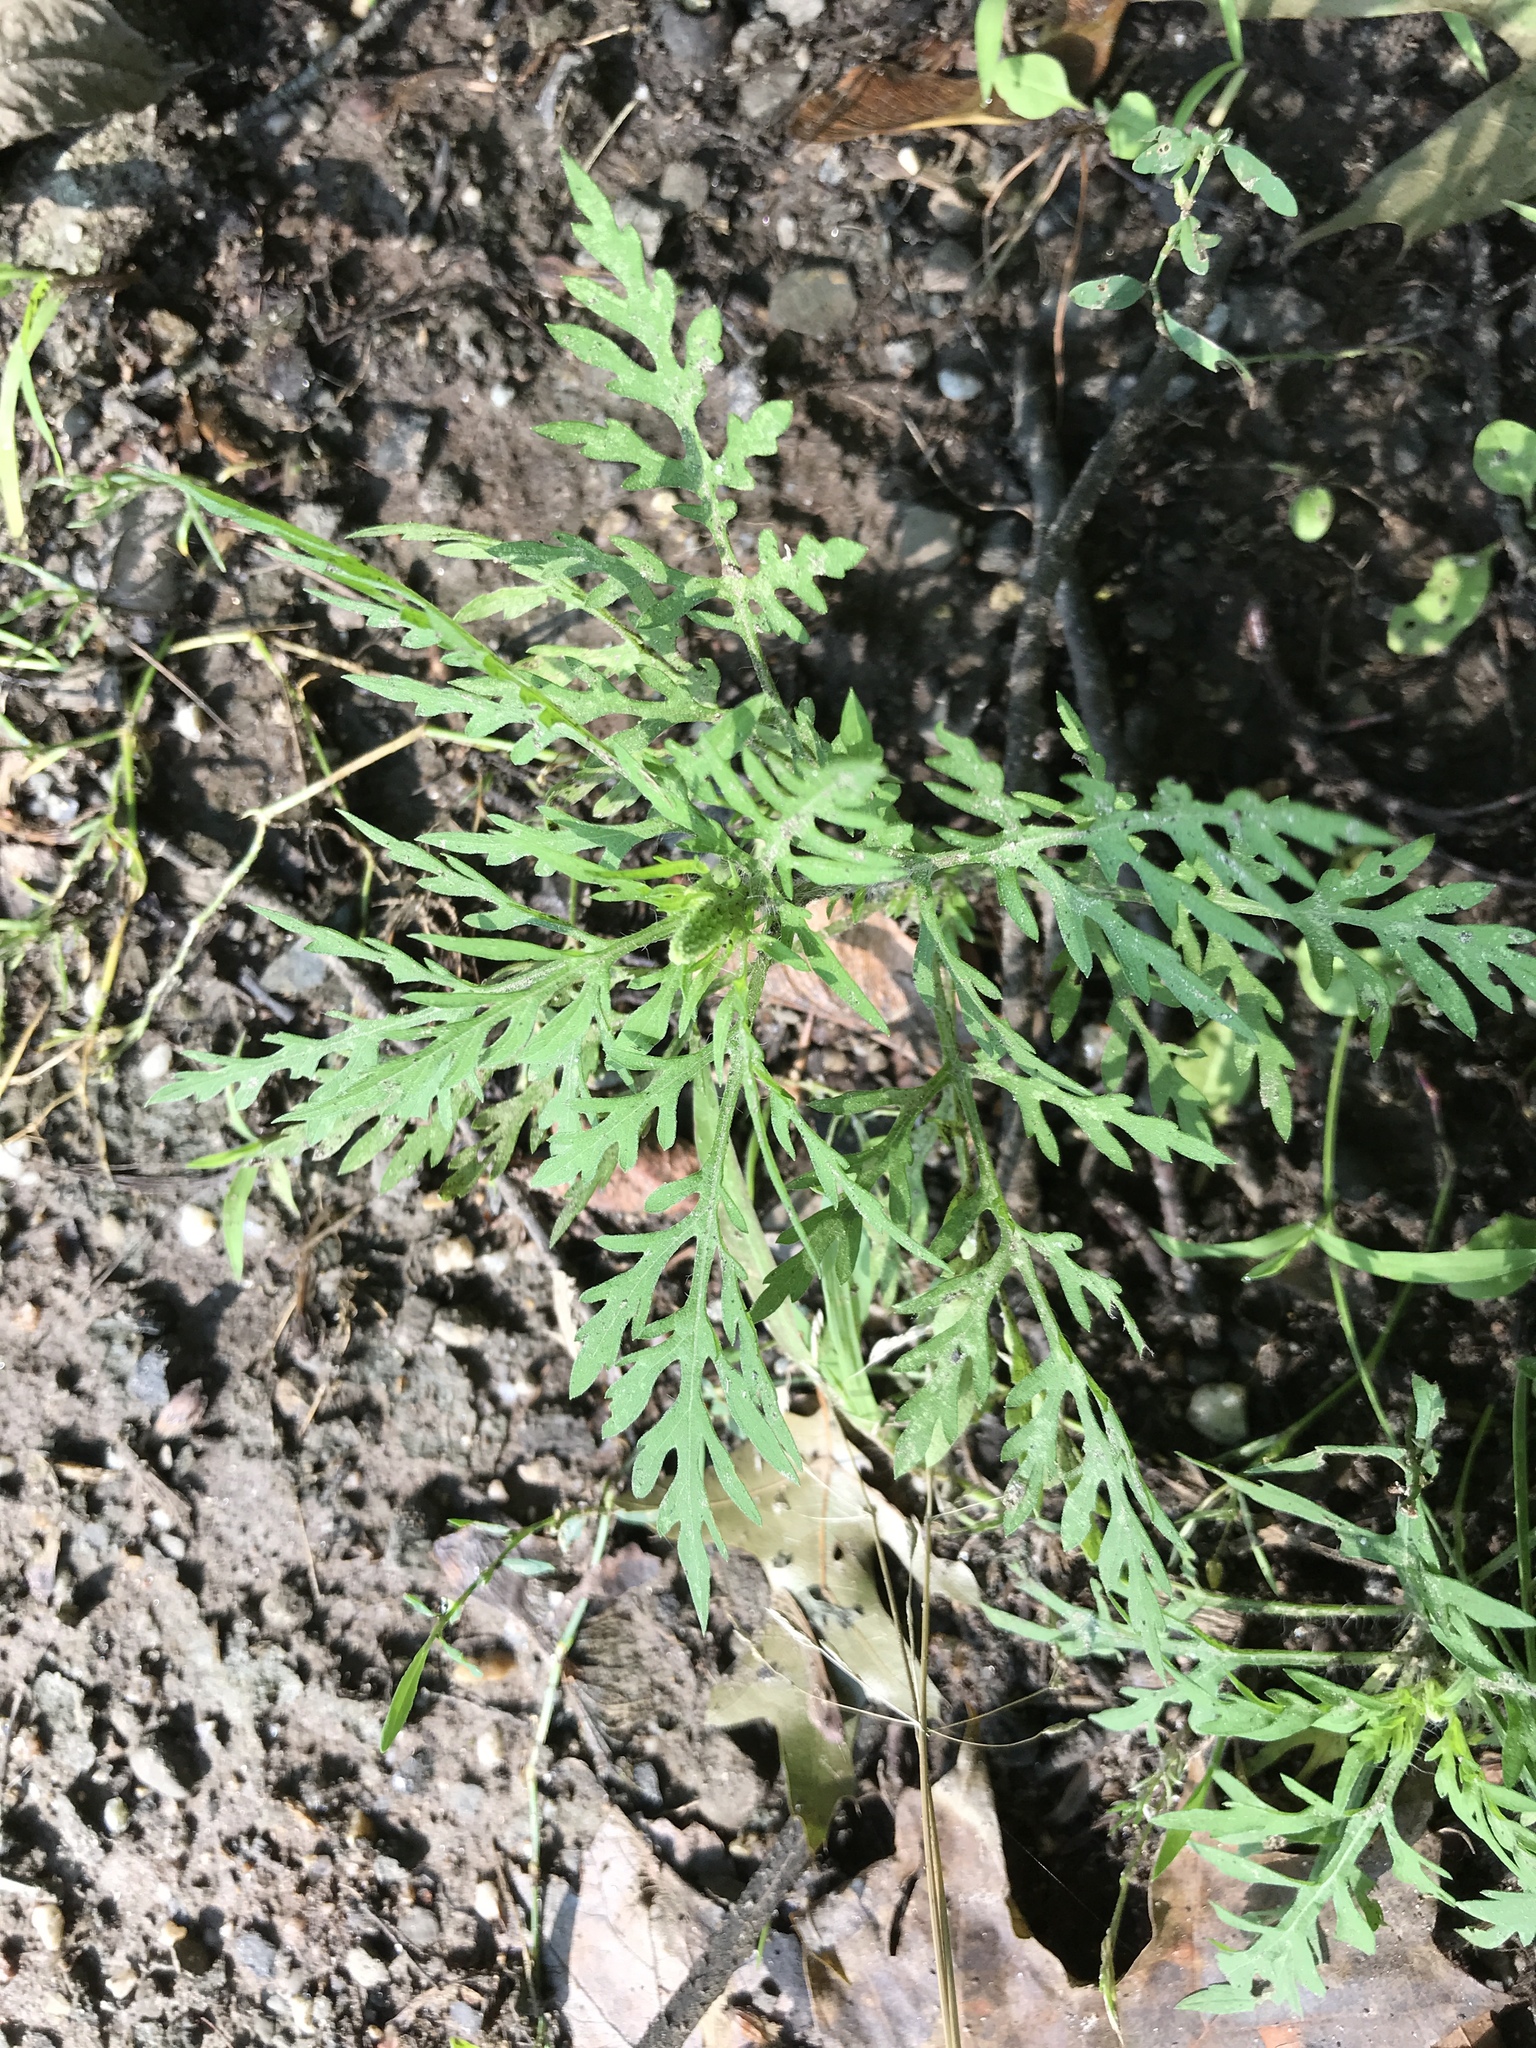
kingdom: Plantae
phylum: Tracheophyta
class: Magnoliopsida
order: Asterales
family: Asteraceae
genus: Ambrosia
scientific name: Ambrosia artemisiifolia
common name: Annual ragweed
